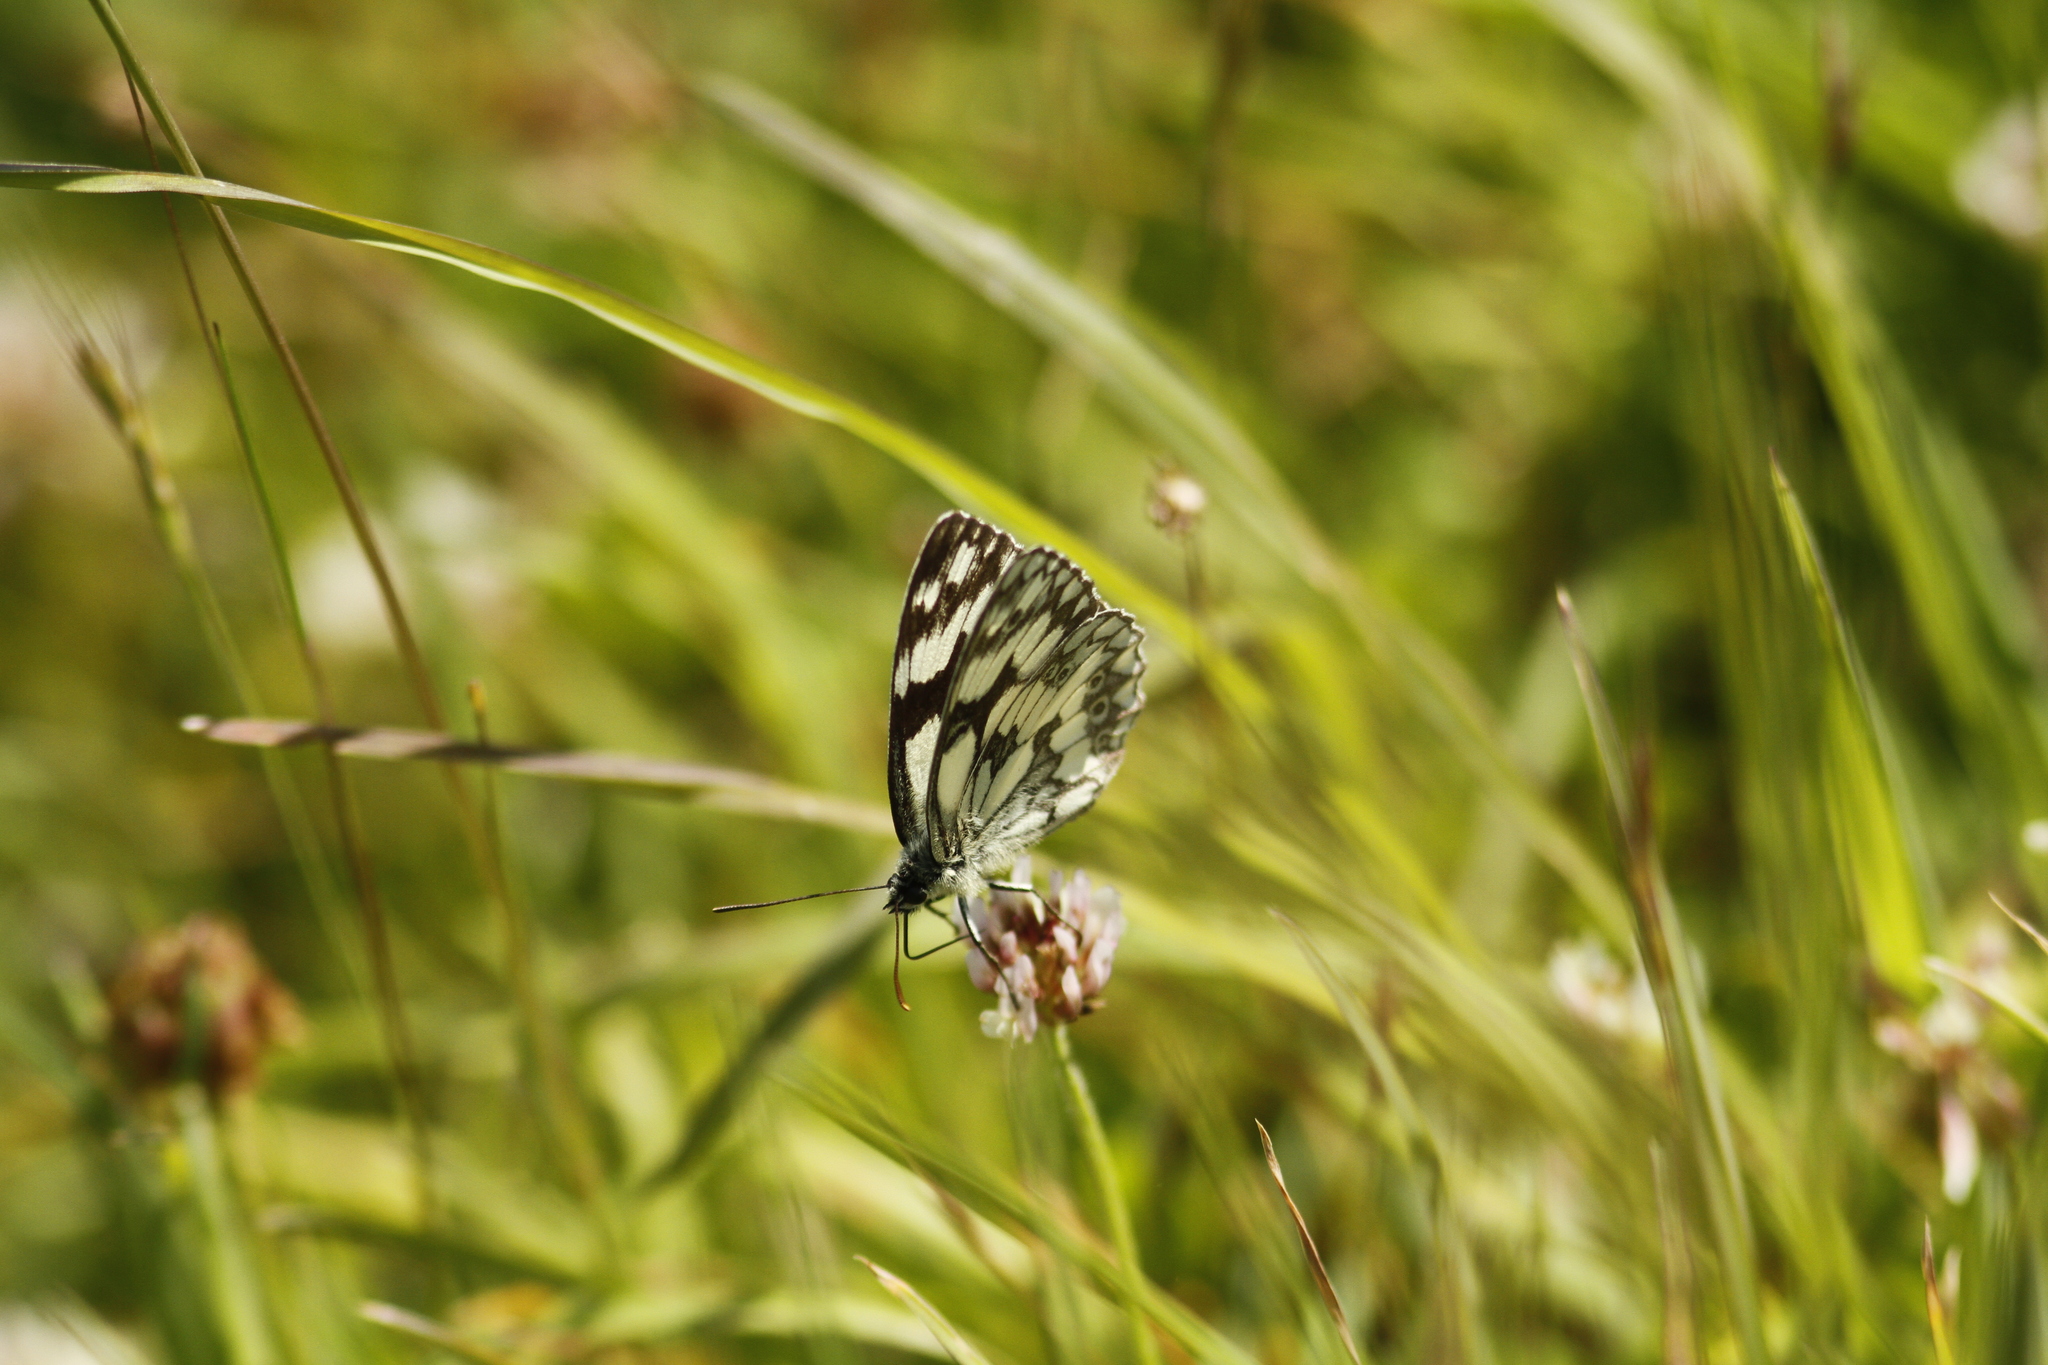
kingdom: Animalia
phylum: Arthropoda
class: Insecta
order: Lepidoptera
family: Nymphalidae
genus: Melanargia
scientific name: Melanargia galathea
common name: Marbled white
